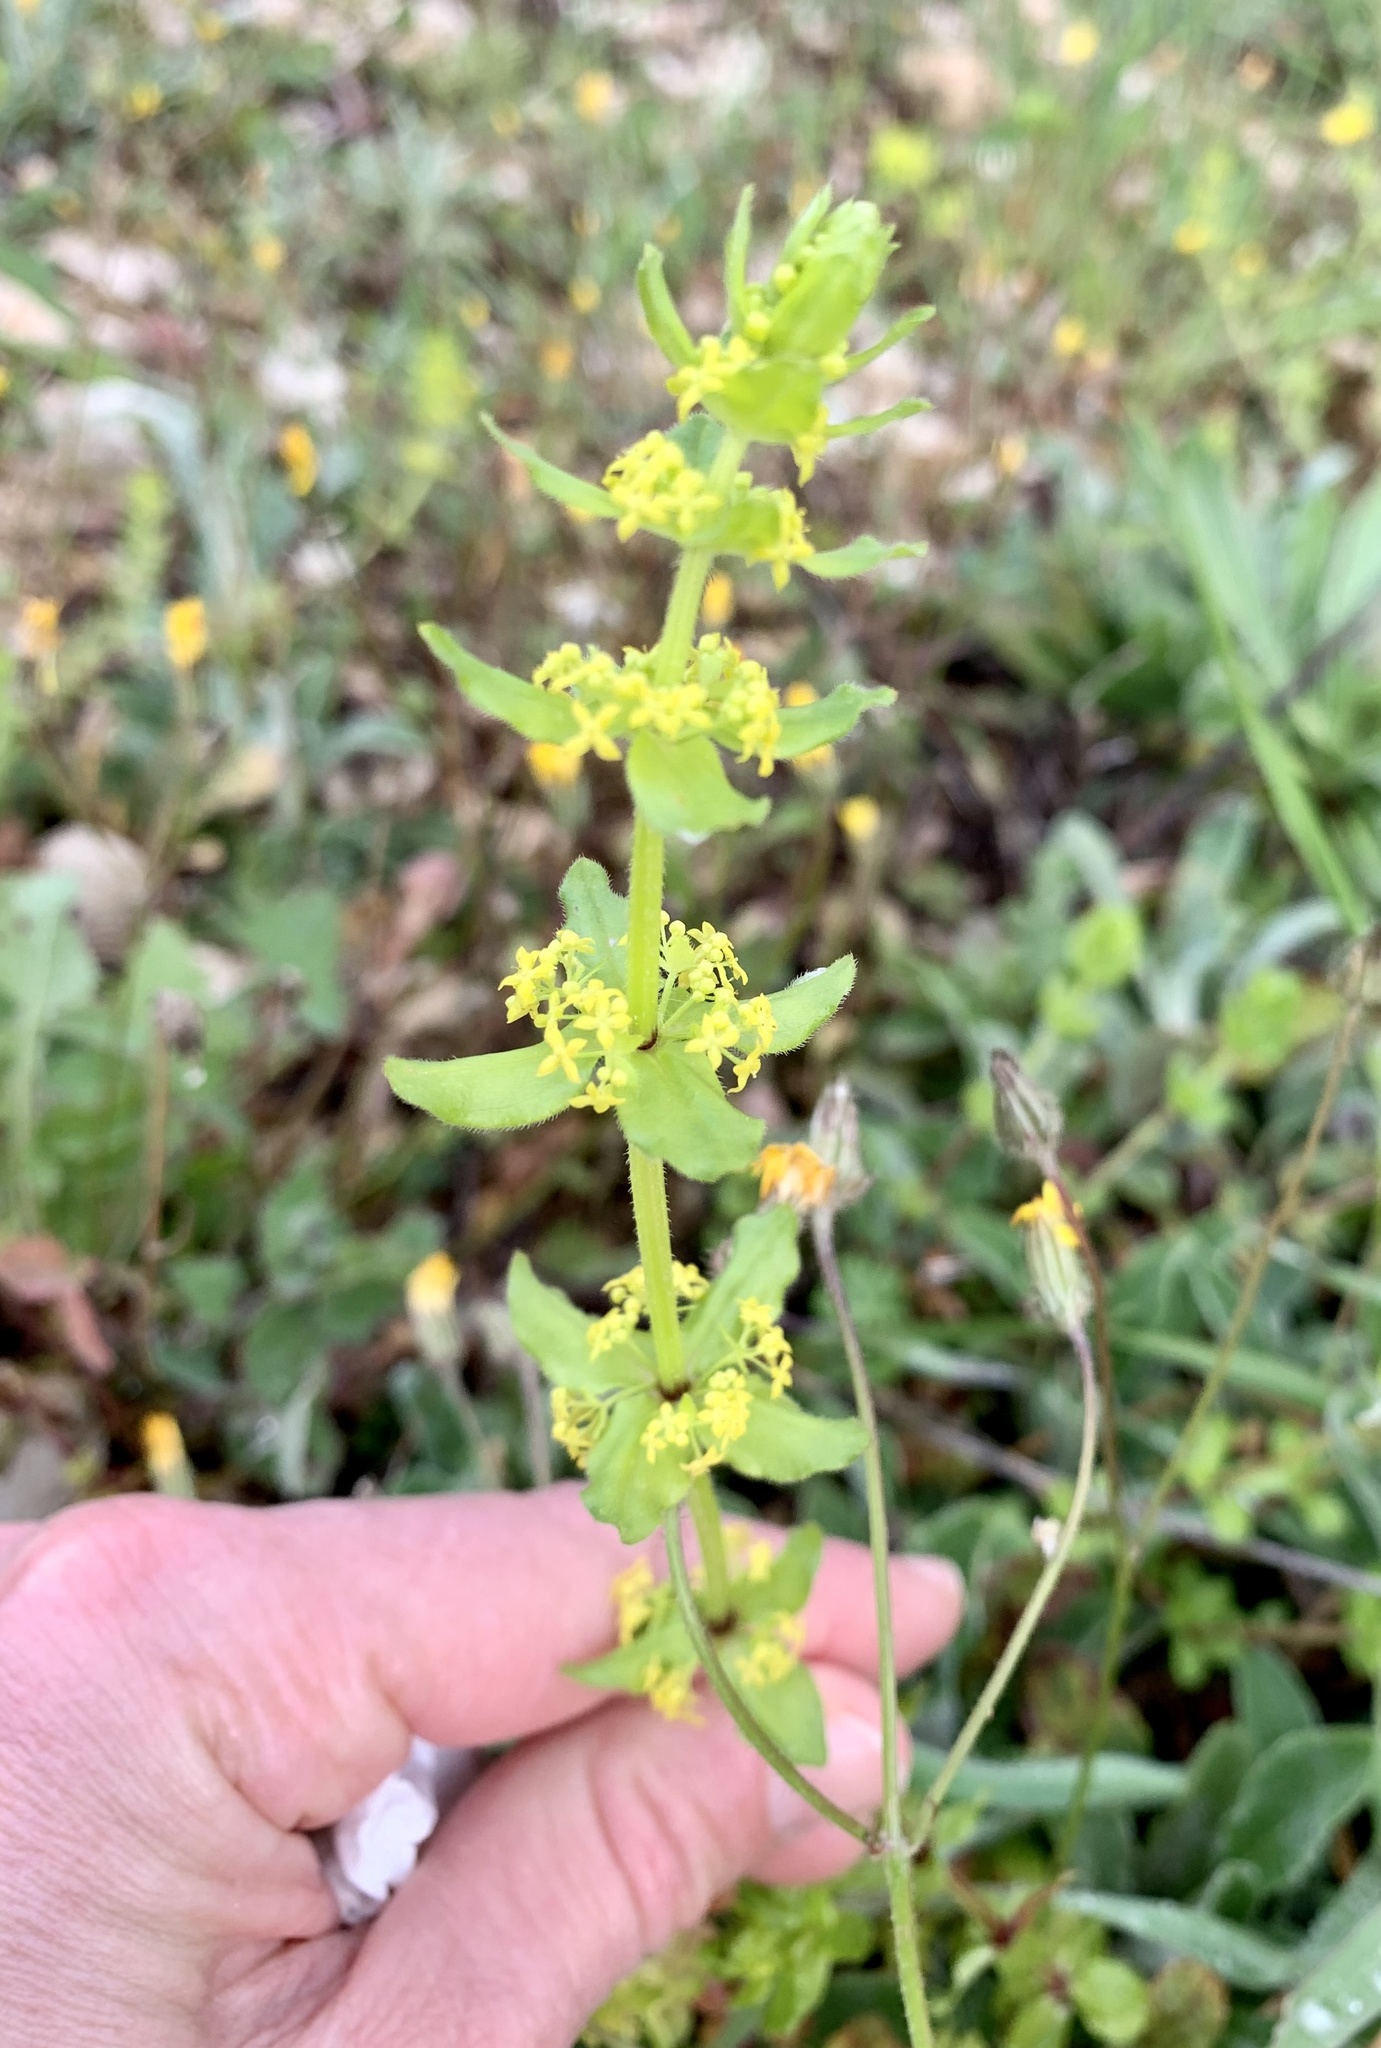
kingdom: Plantae
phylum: Tracheophyta
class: Magnoliopsida
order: Gentianales
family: Rubiaceae
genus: Cruciata
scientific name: Cruciata laevipes
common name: Crosswort
